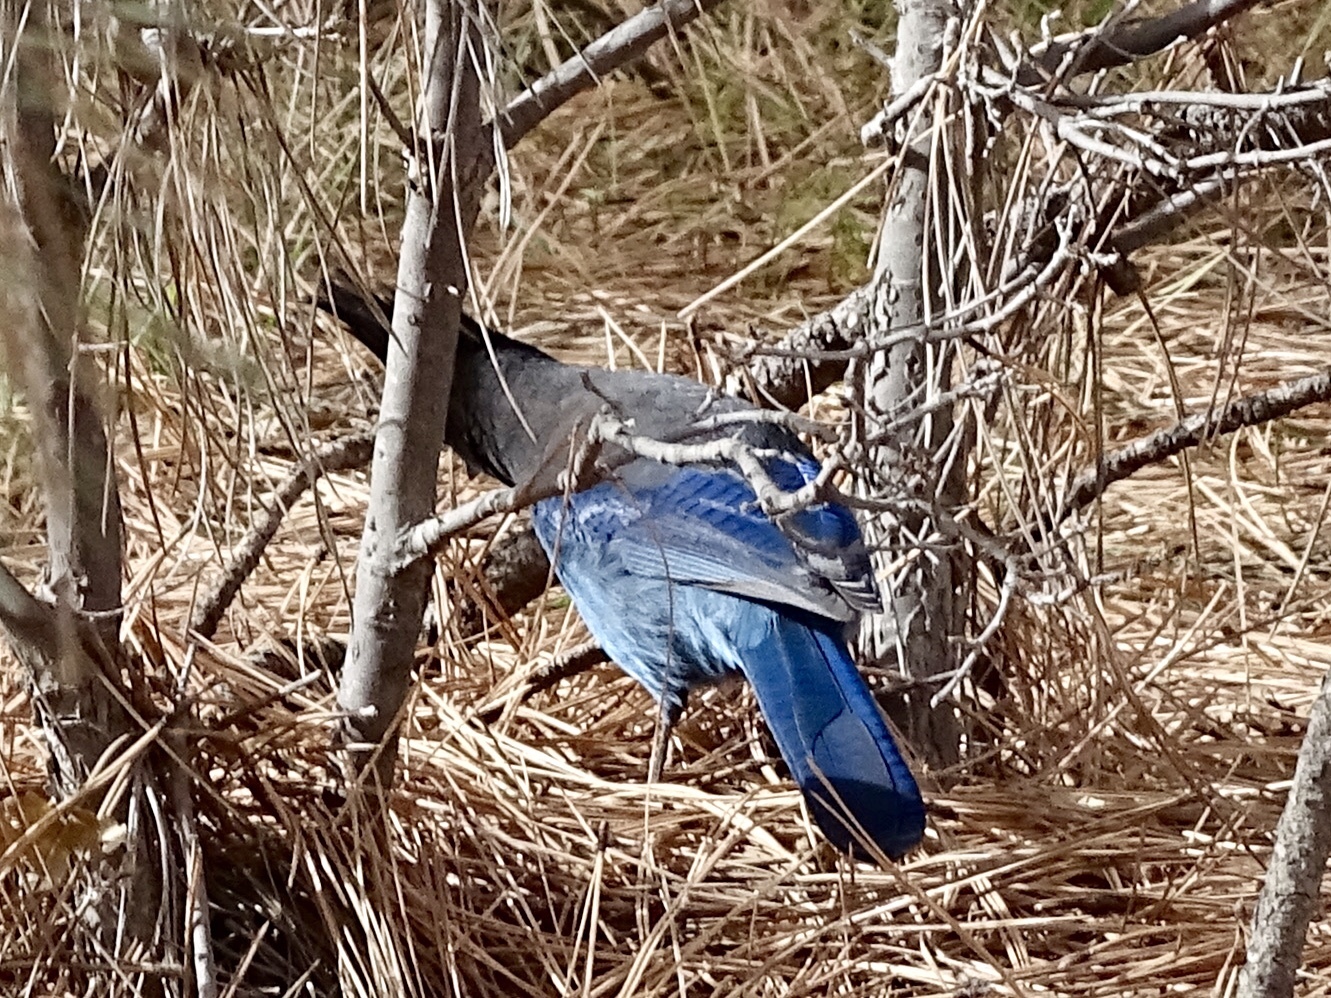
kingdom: Animalia
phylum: Chordata
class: Aves
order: Passeriformes
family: Corvidae
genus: Cyanocitta
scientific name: Cyanocitta stelleri
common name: Steller's jay
